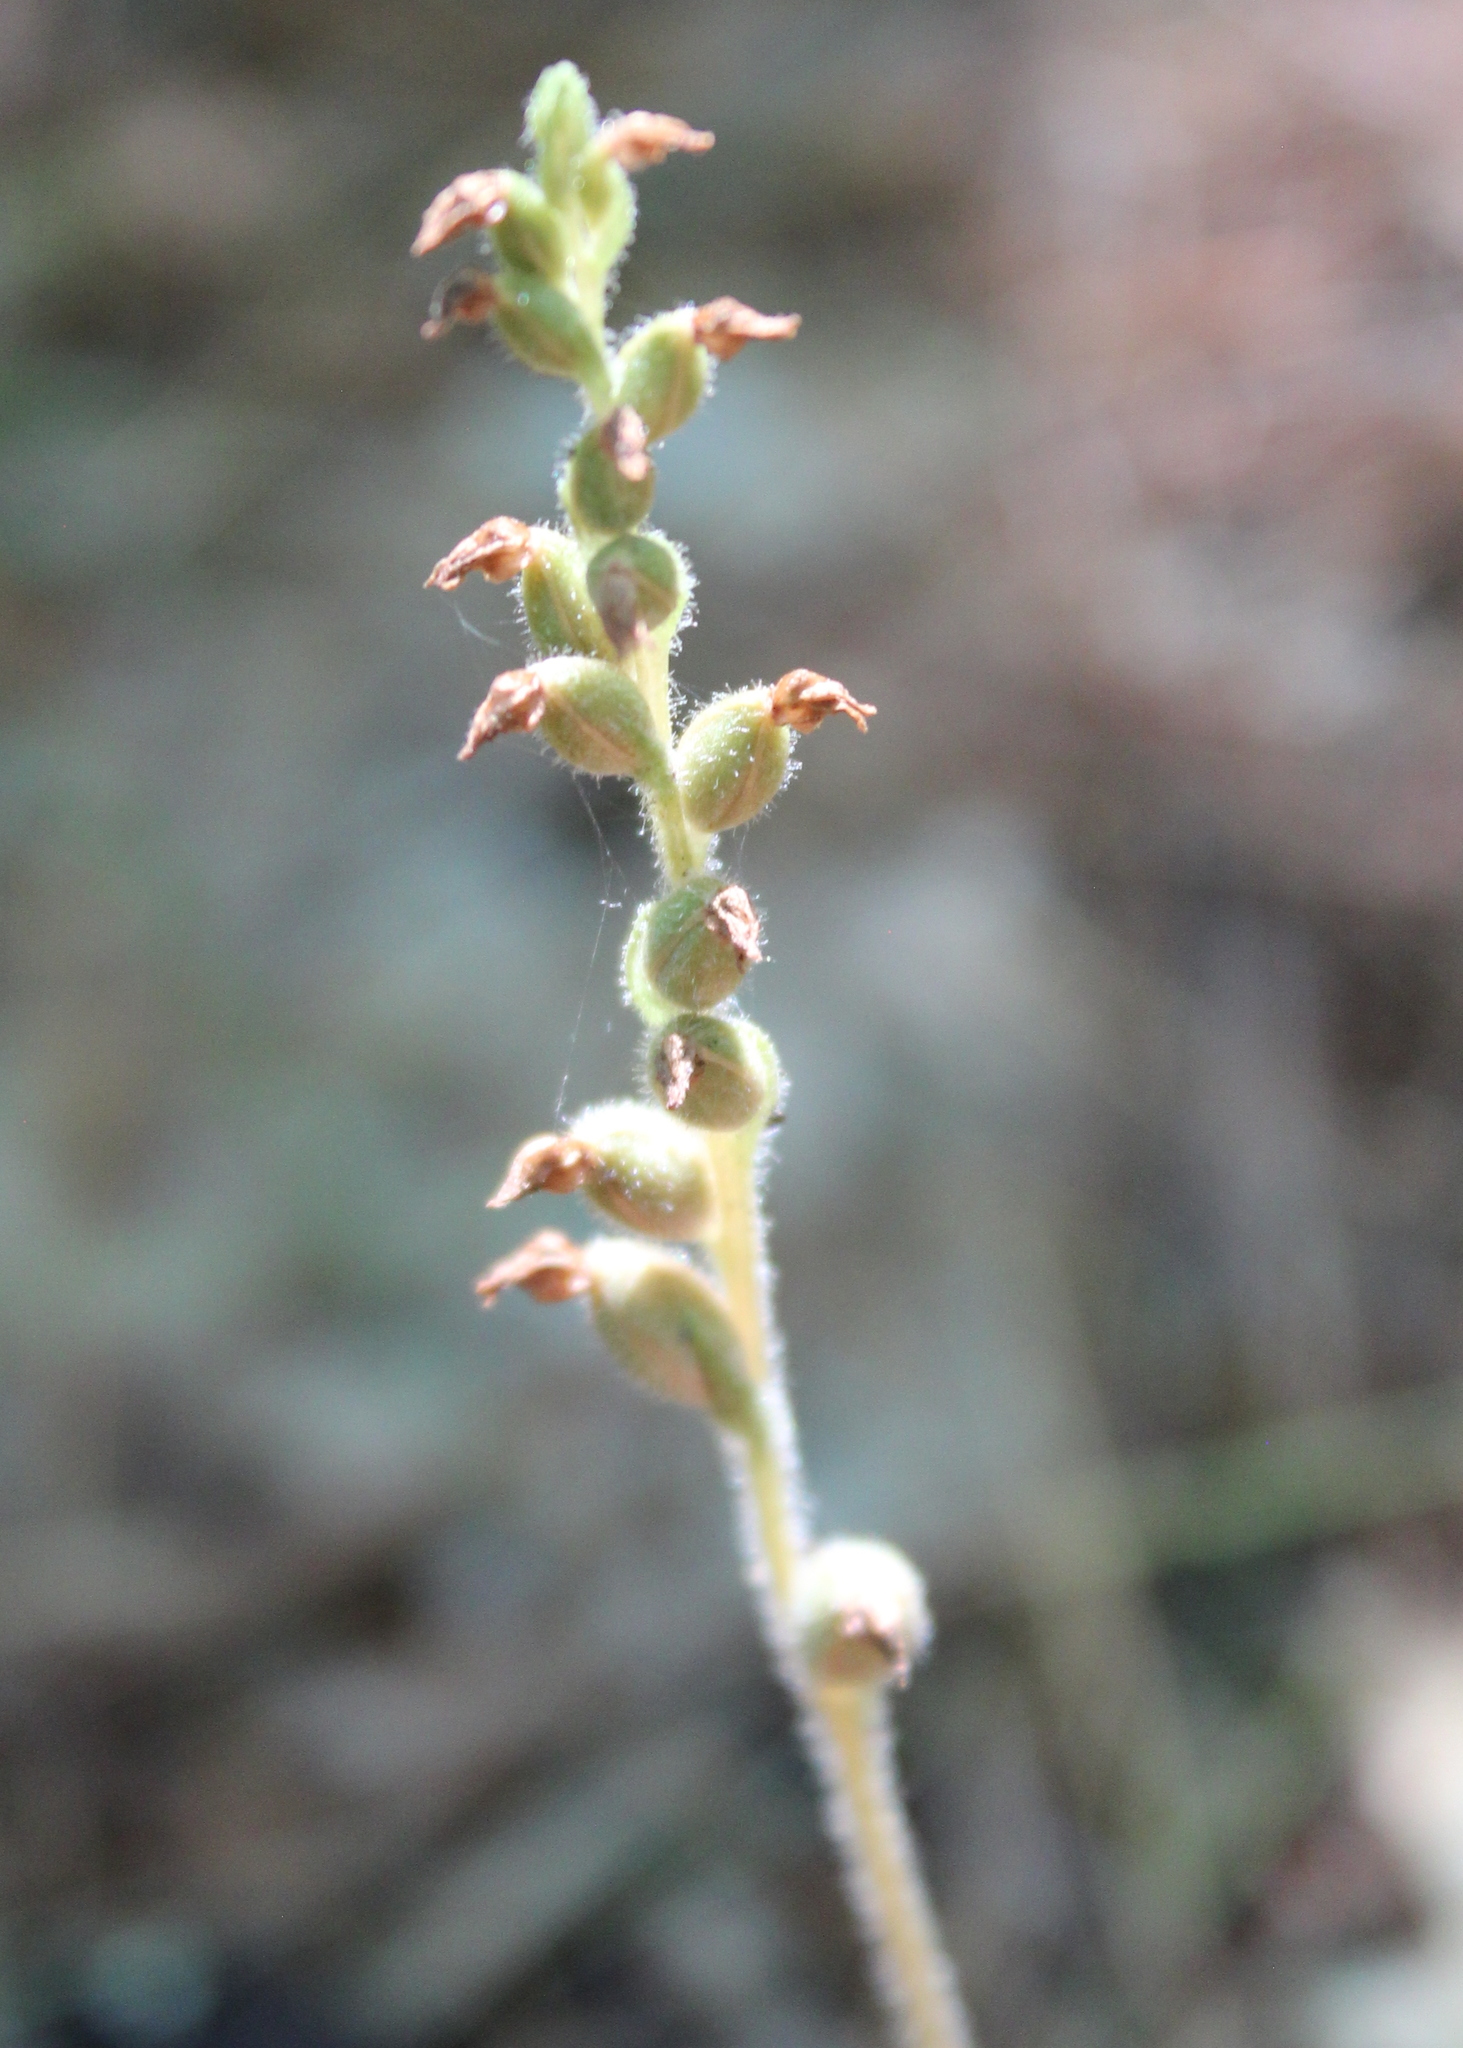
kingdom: Plantae
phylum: Tracheophyta
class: Liliopsida
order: Asparagales
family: Orchidaceae
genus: Goodyera
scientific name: Goodyera tesselata
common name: Checkered rattlesnake-plantain
